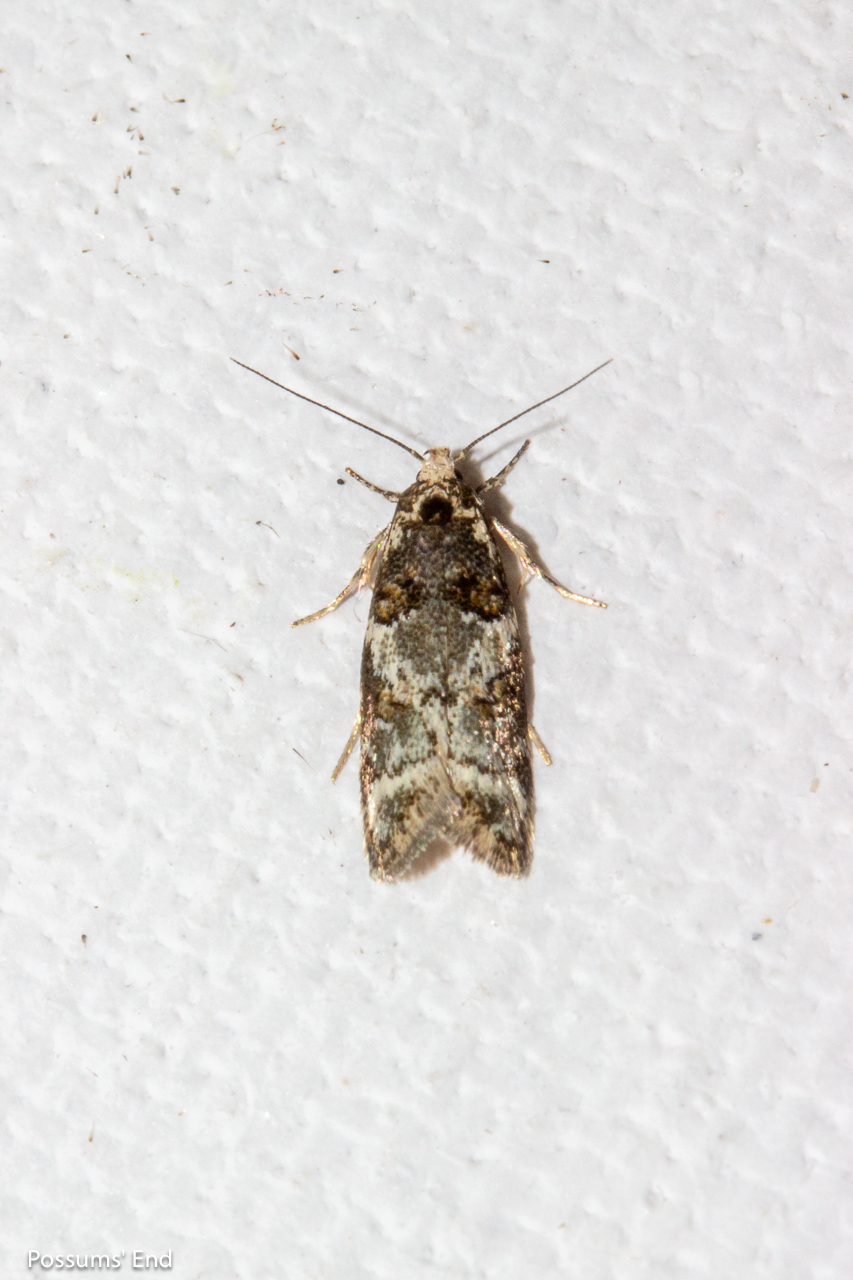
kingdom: Animalia
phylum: Arthropoda
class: Insecta
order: Lepidoptera
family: Oecophoridae
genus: Trachypepla
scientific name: Trachypepla contritella
